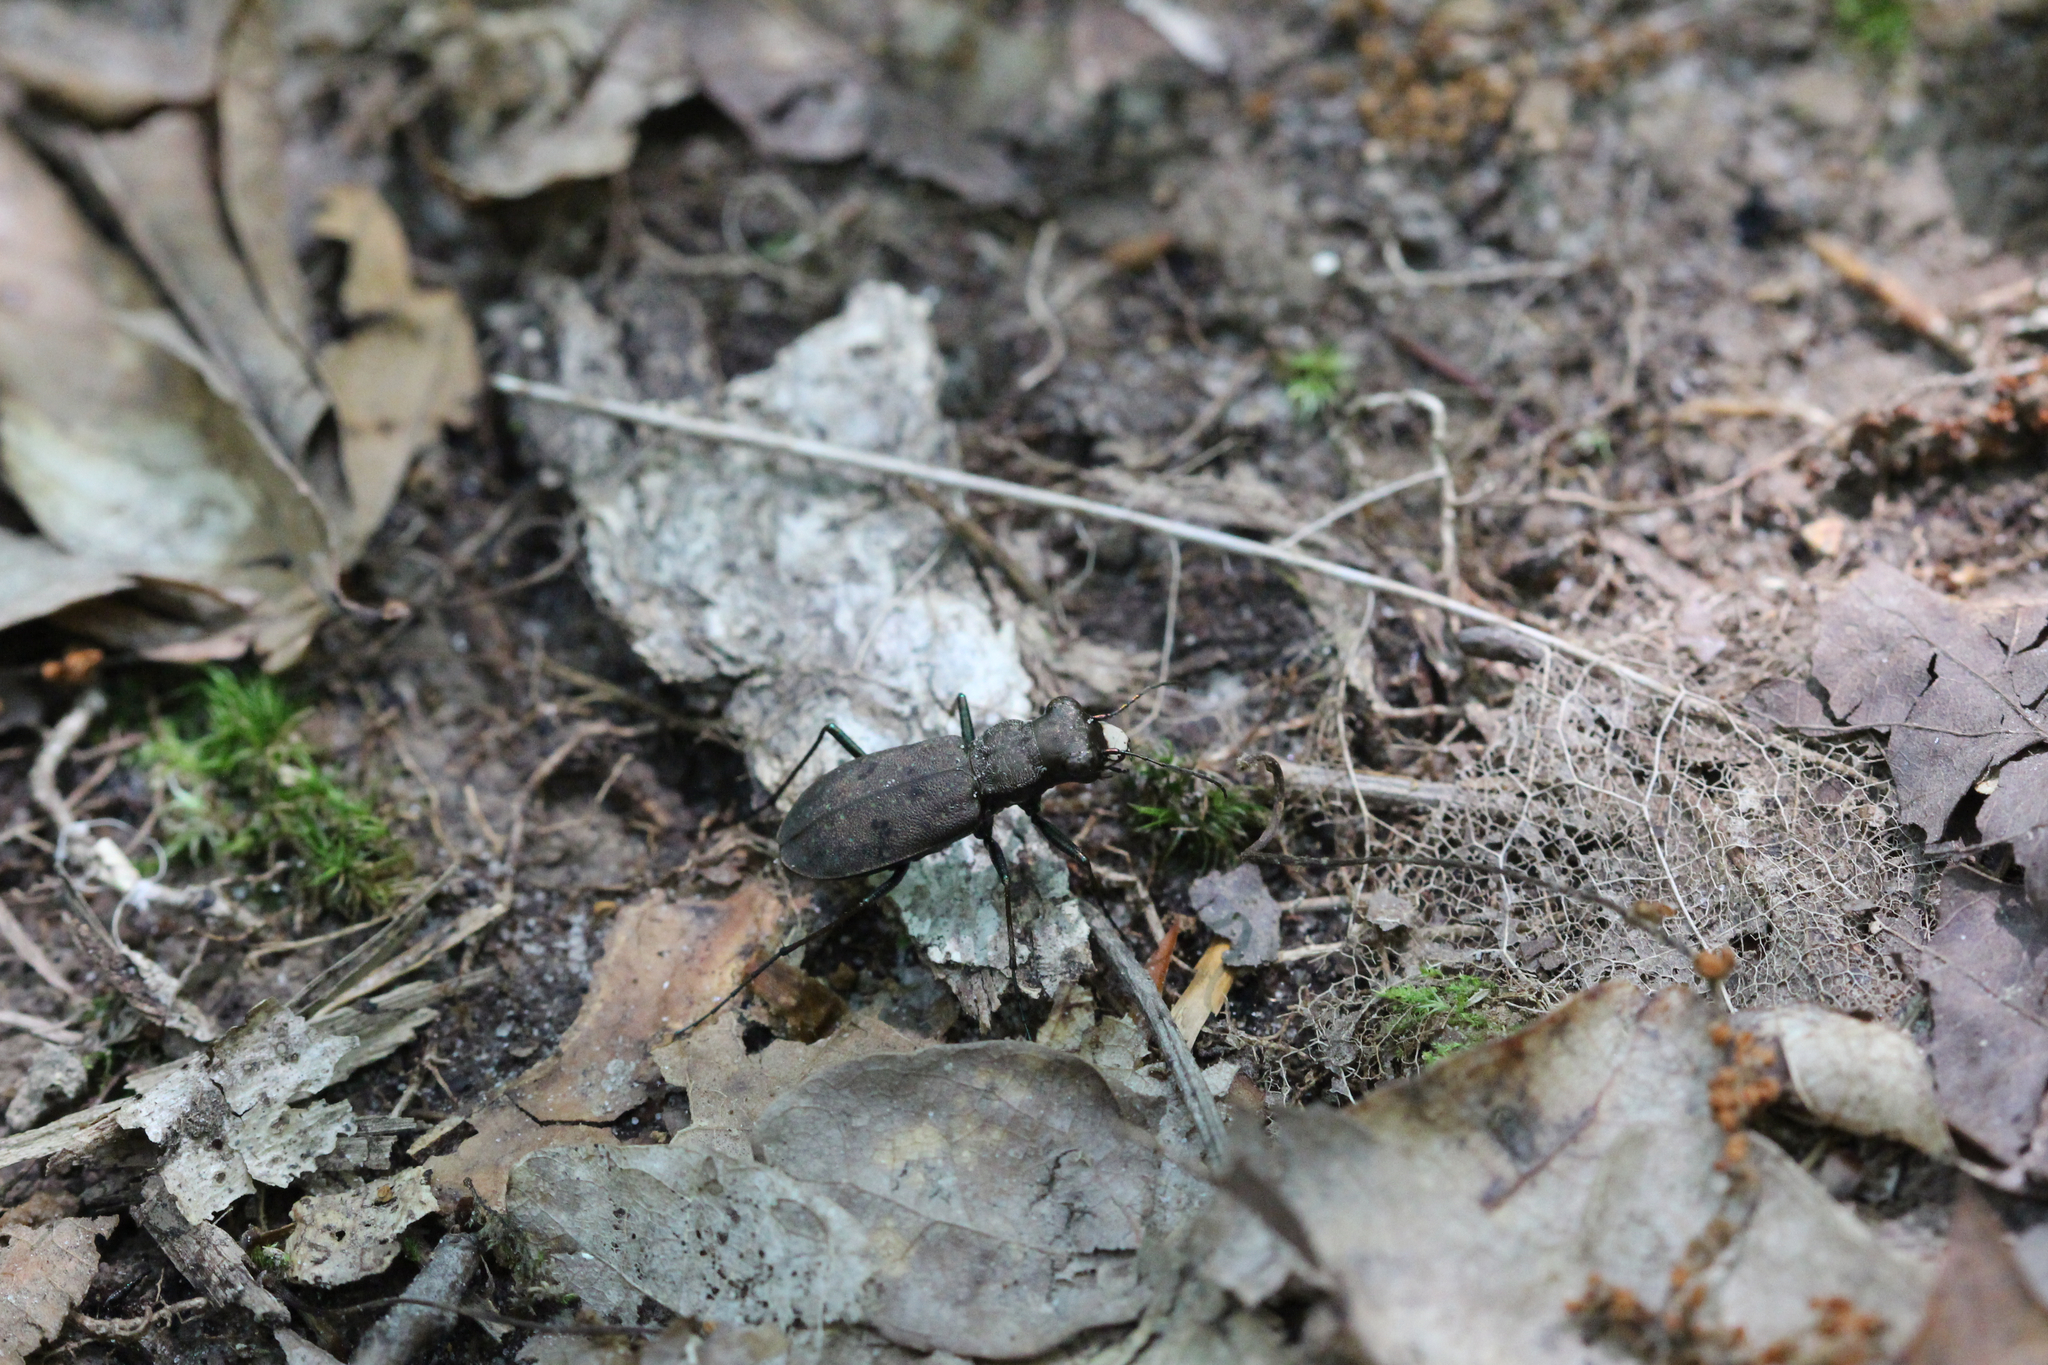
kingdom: Animalia
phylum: Arthropoda
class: Insecta
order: Coleoptera
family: Carabidae
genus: Cylindera
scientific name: Cylindera unipunctata
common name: One-spotted tiger beetle
